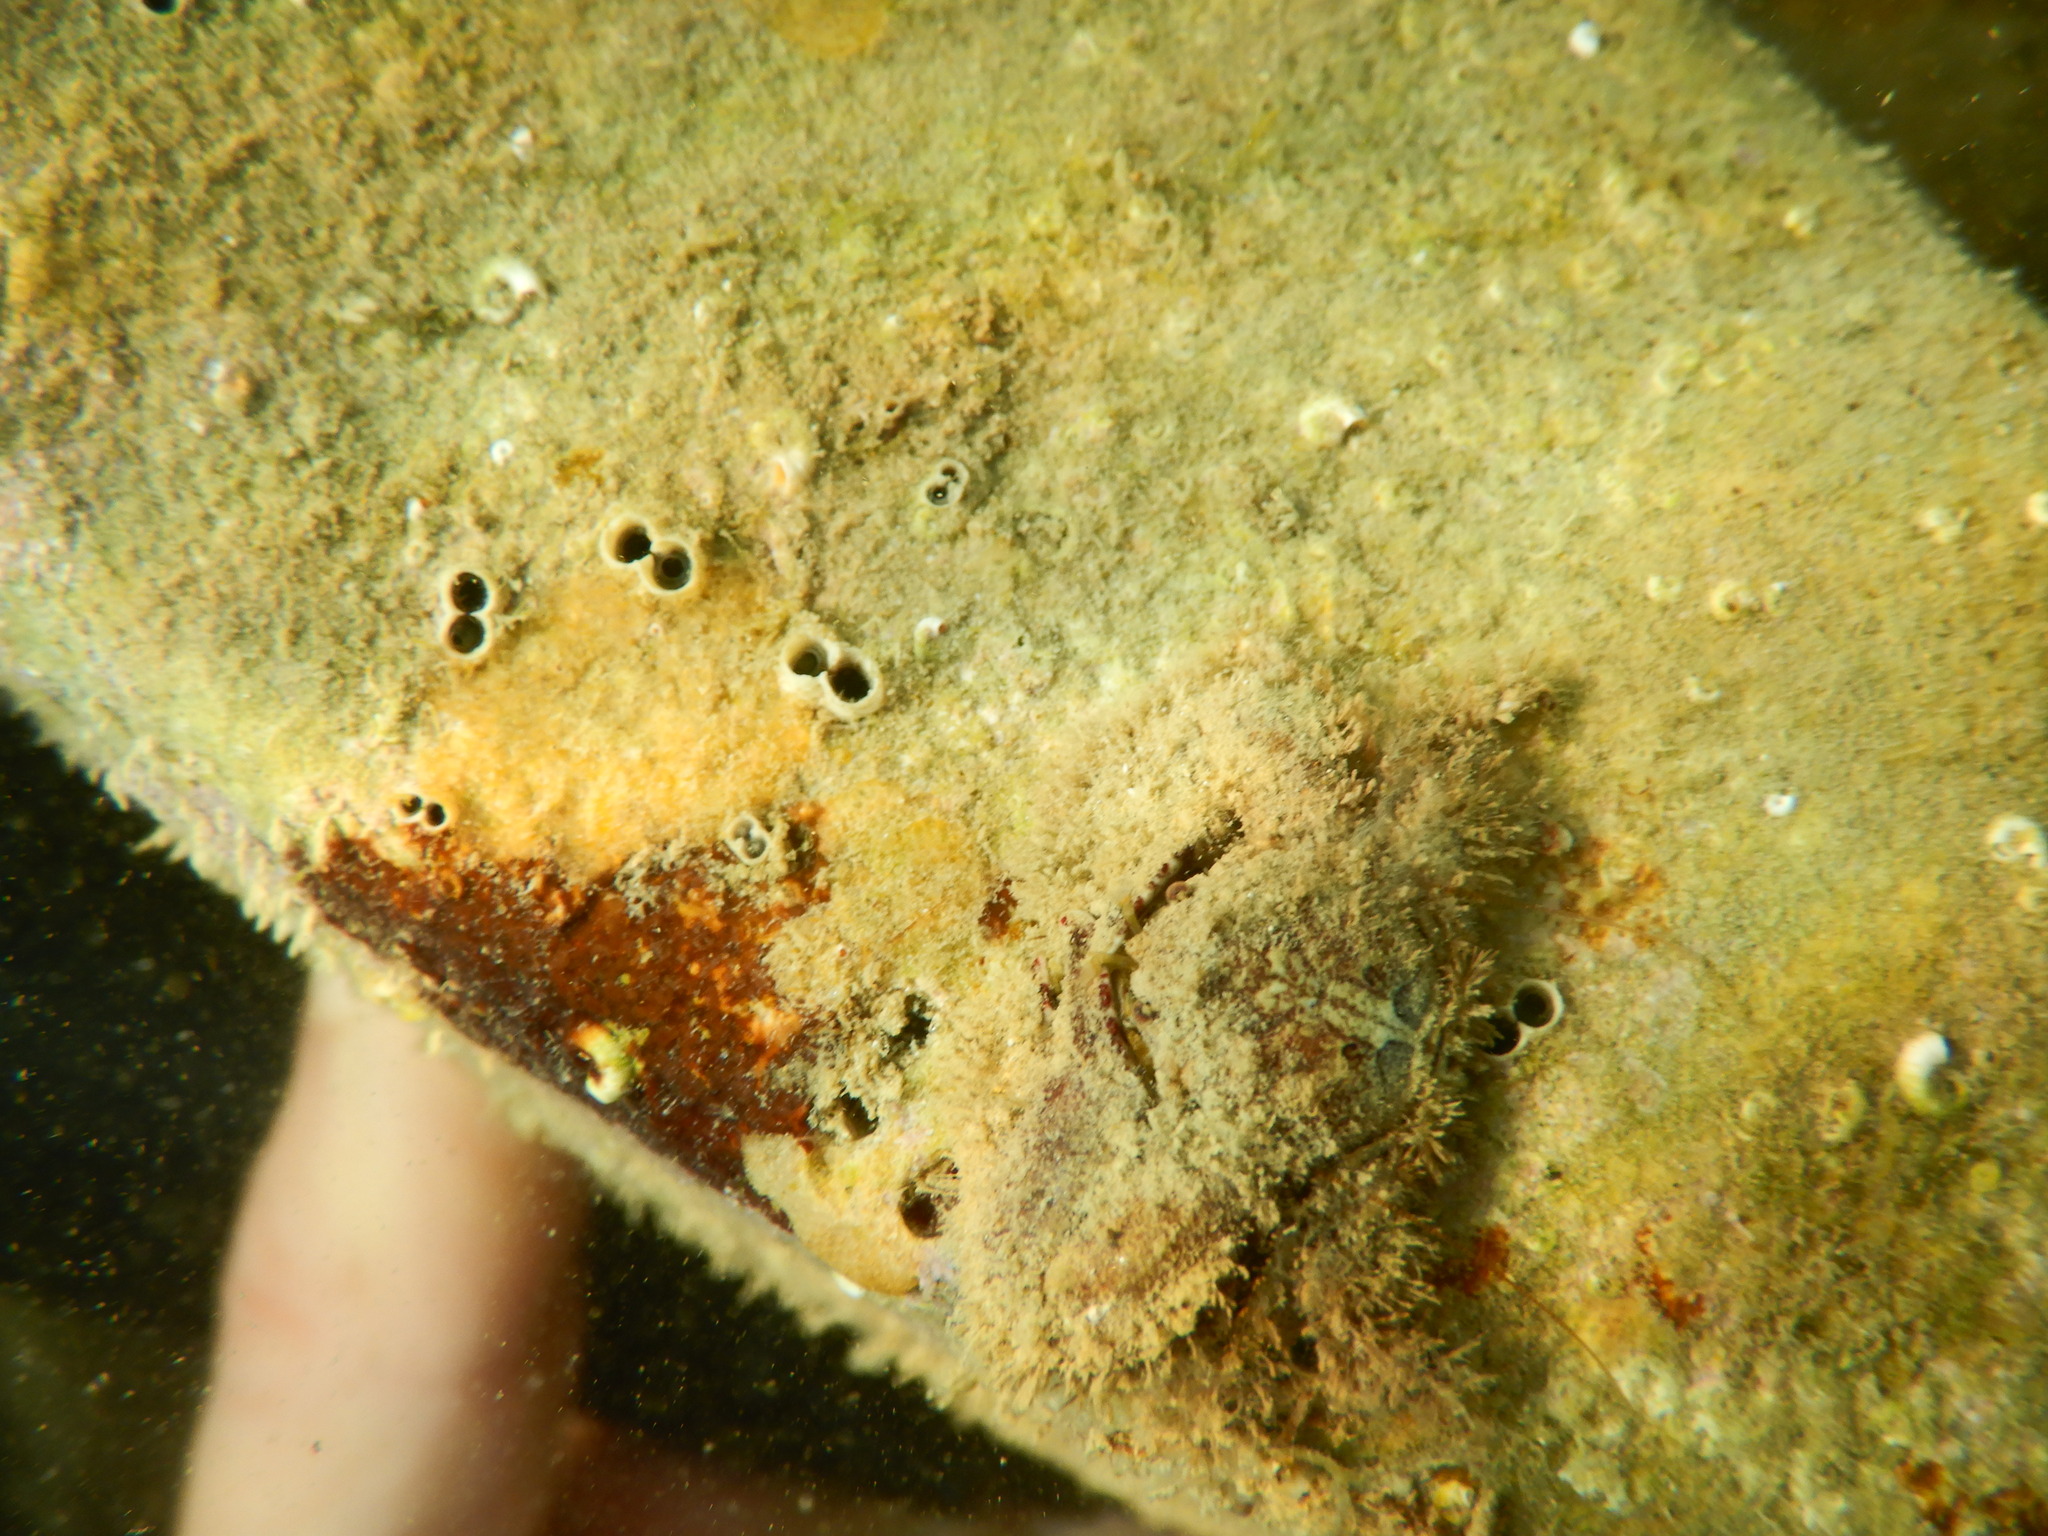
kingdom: Animalia
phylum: Arthropoda
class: Malacostraca
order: Decapoda
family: Porcellanidae
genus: Porcellana
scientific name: Porcellana platycheles
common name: Porcelain crab
